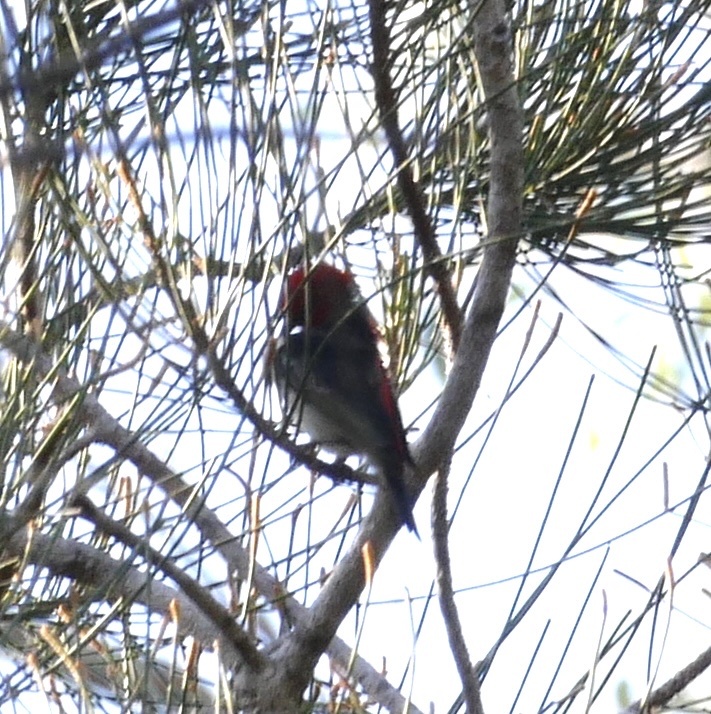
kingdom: Animalia
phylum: Chordata
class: Aves
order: Passeriformes
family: Meliphagidae
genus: Myzomela
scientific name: Myzomela sanguinolenta
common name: Scarlet myzomela
